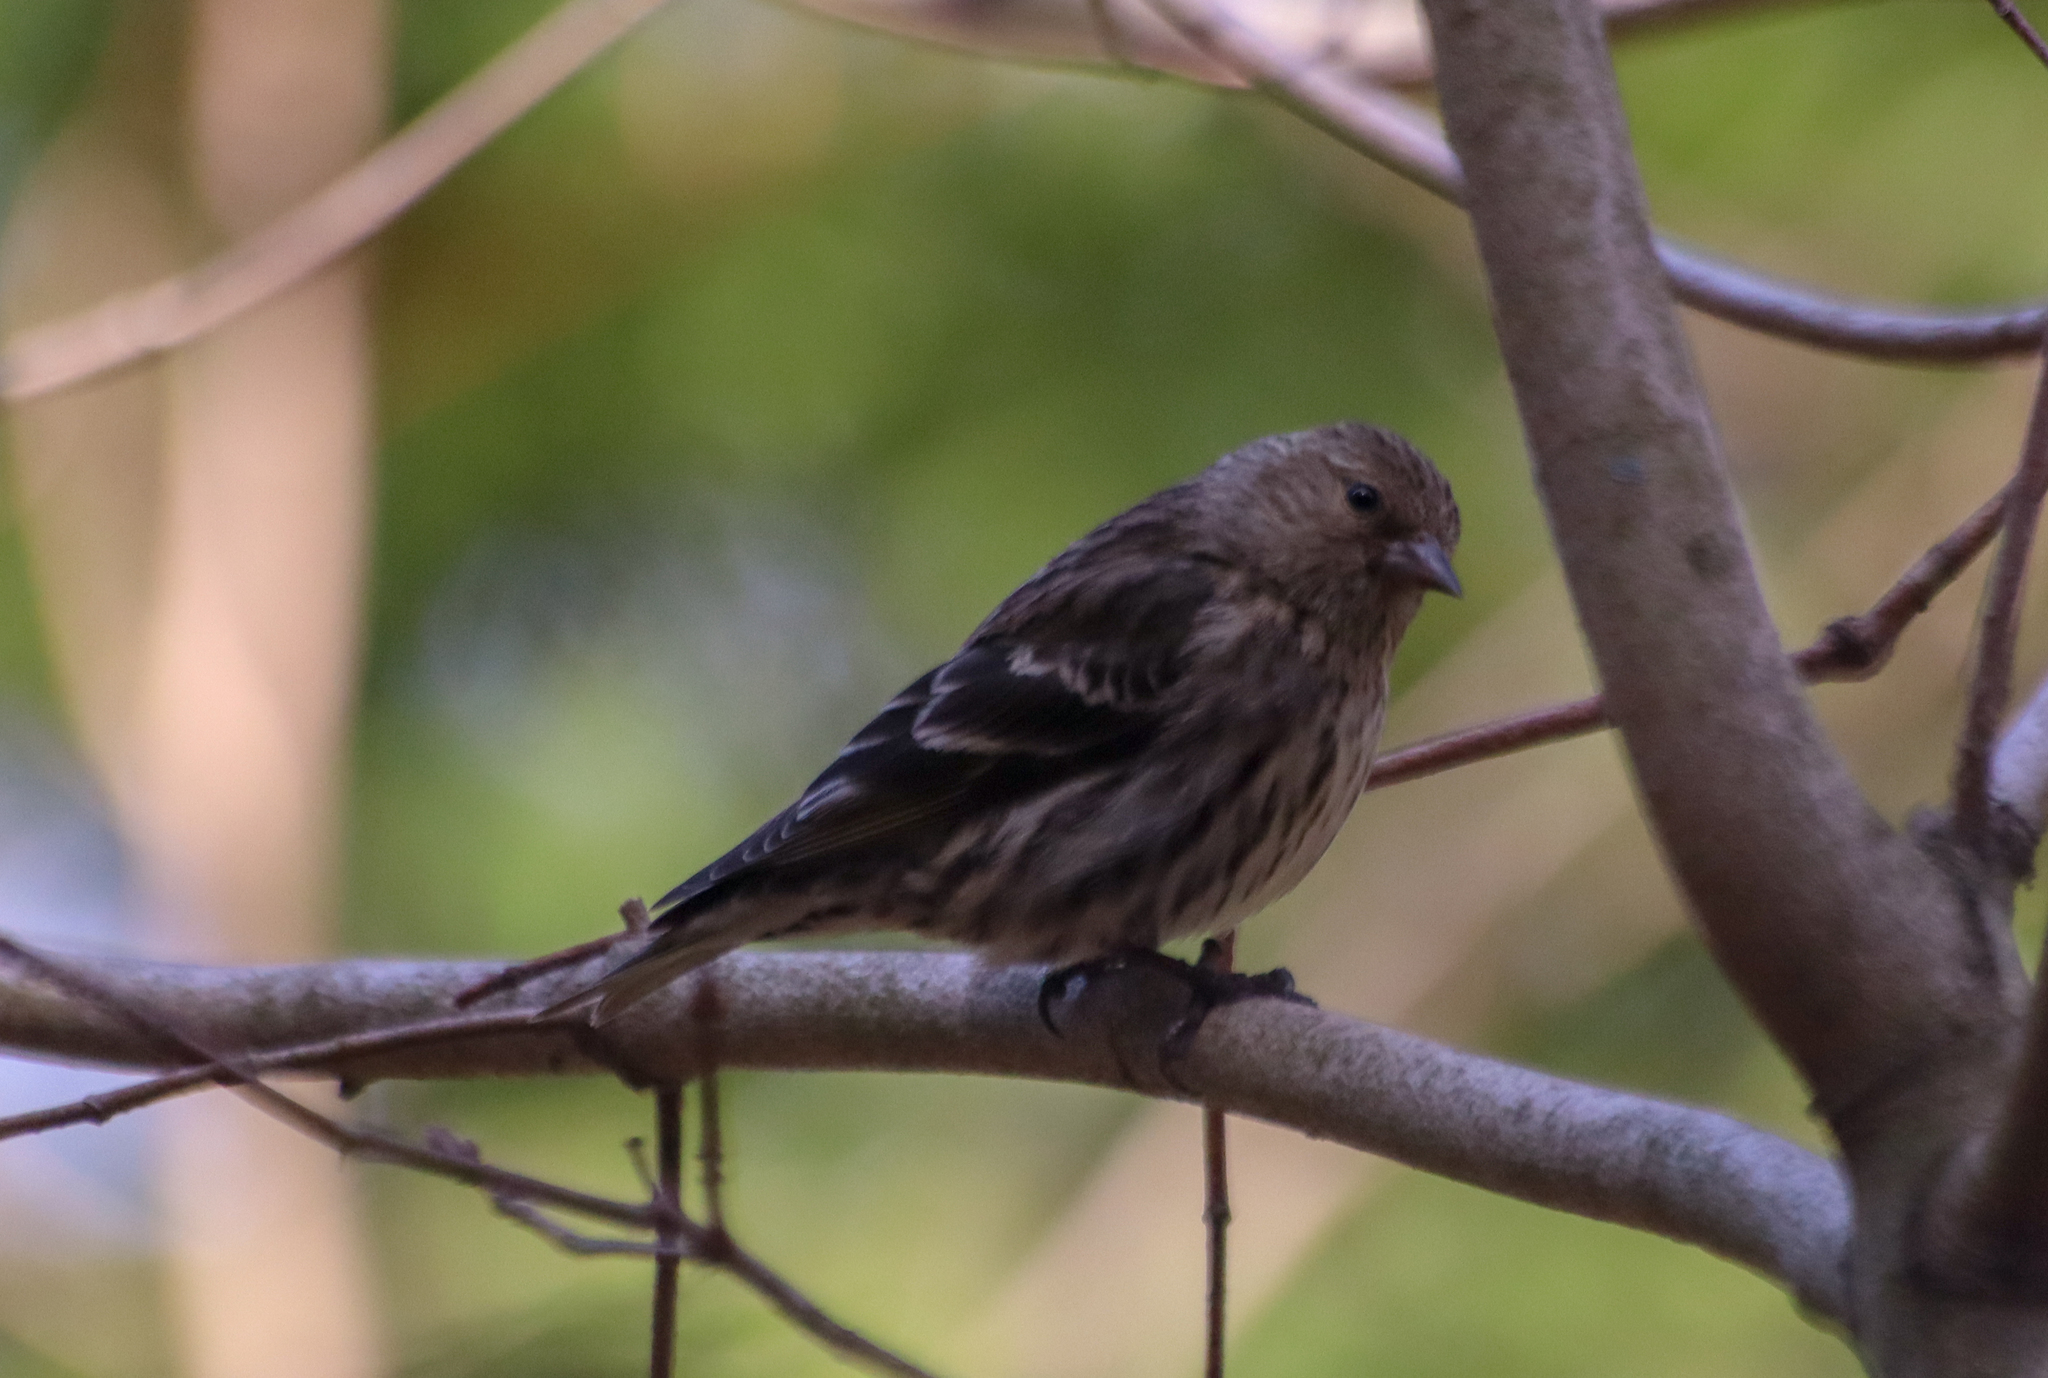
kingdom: Animalia
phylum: Chordata
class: Aves
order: Passeriformes
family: Fringillidae
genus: Spinus
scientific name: Spinus pinus
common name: Pine siskin
